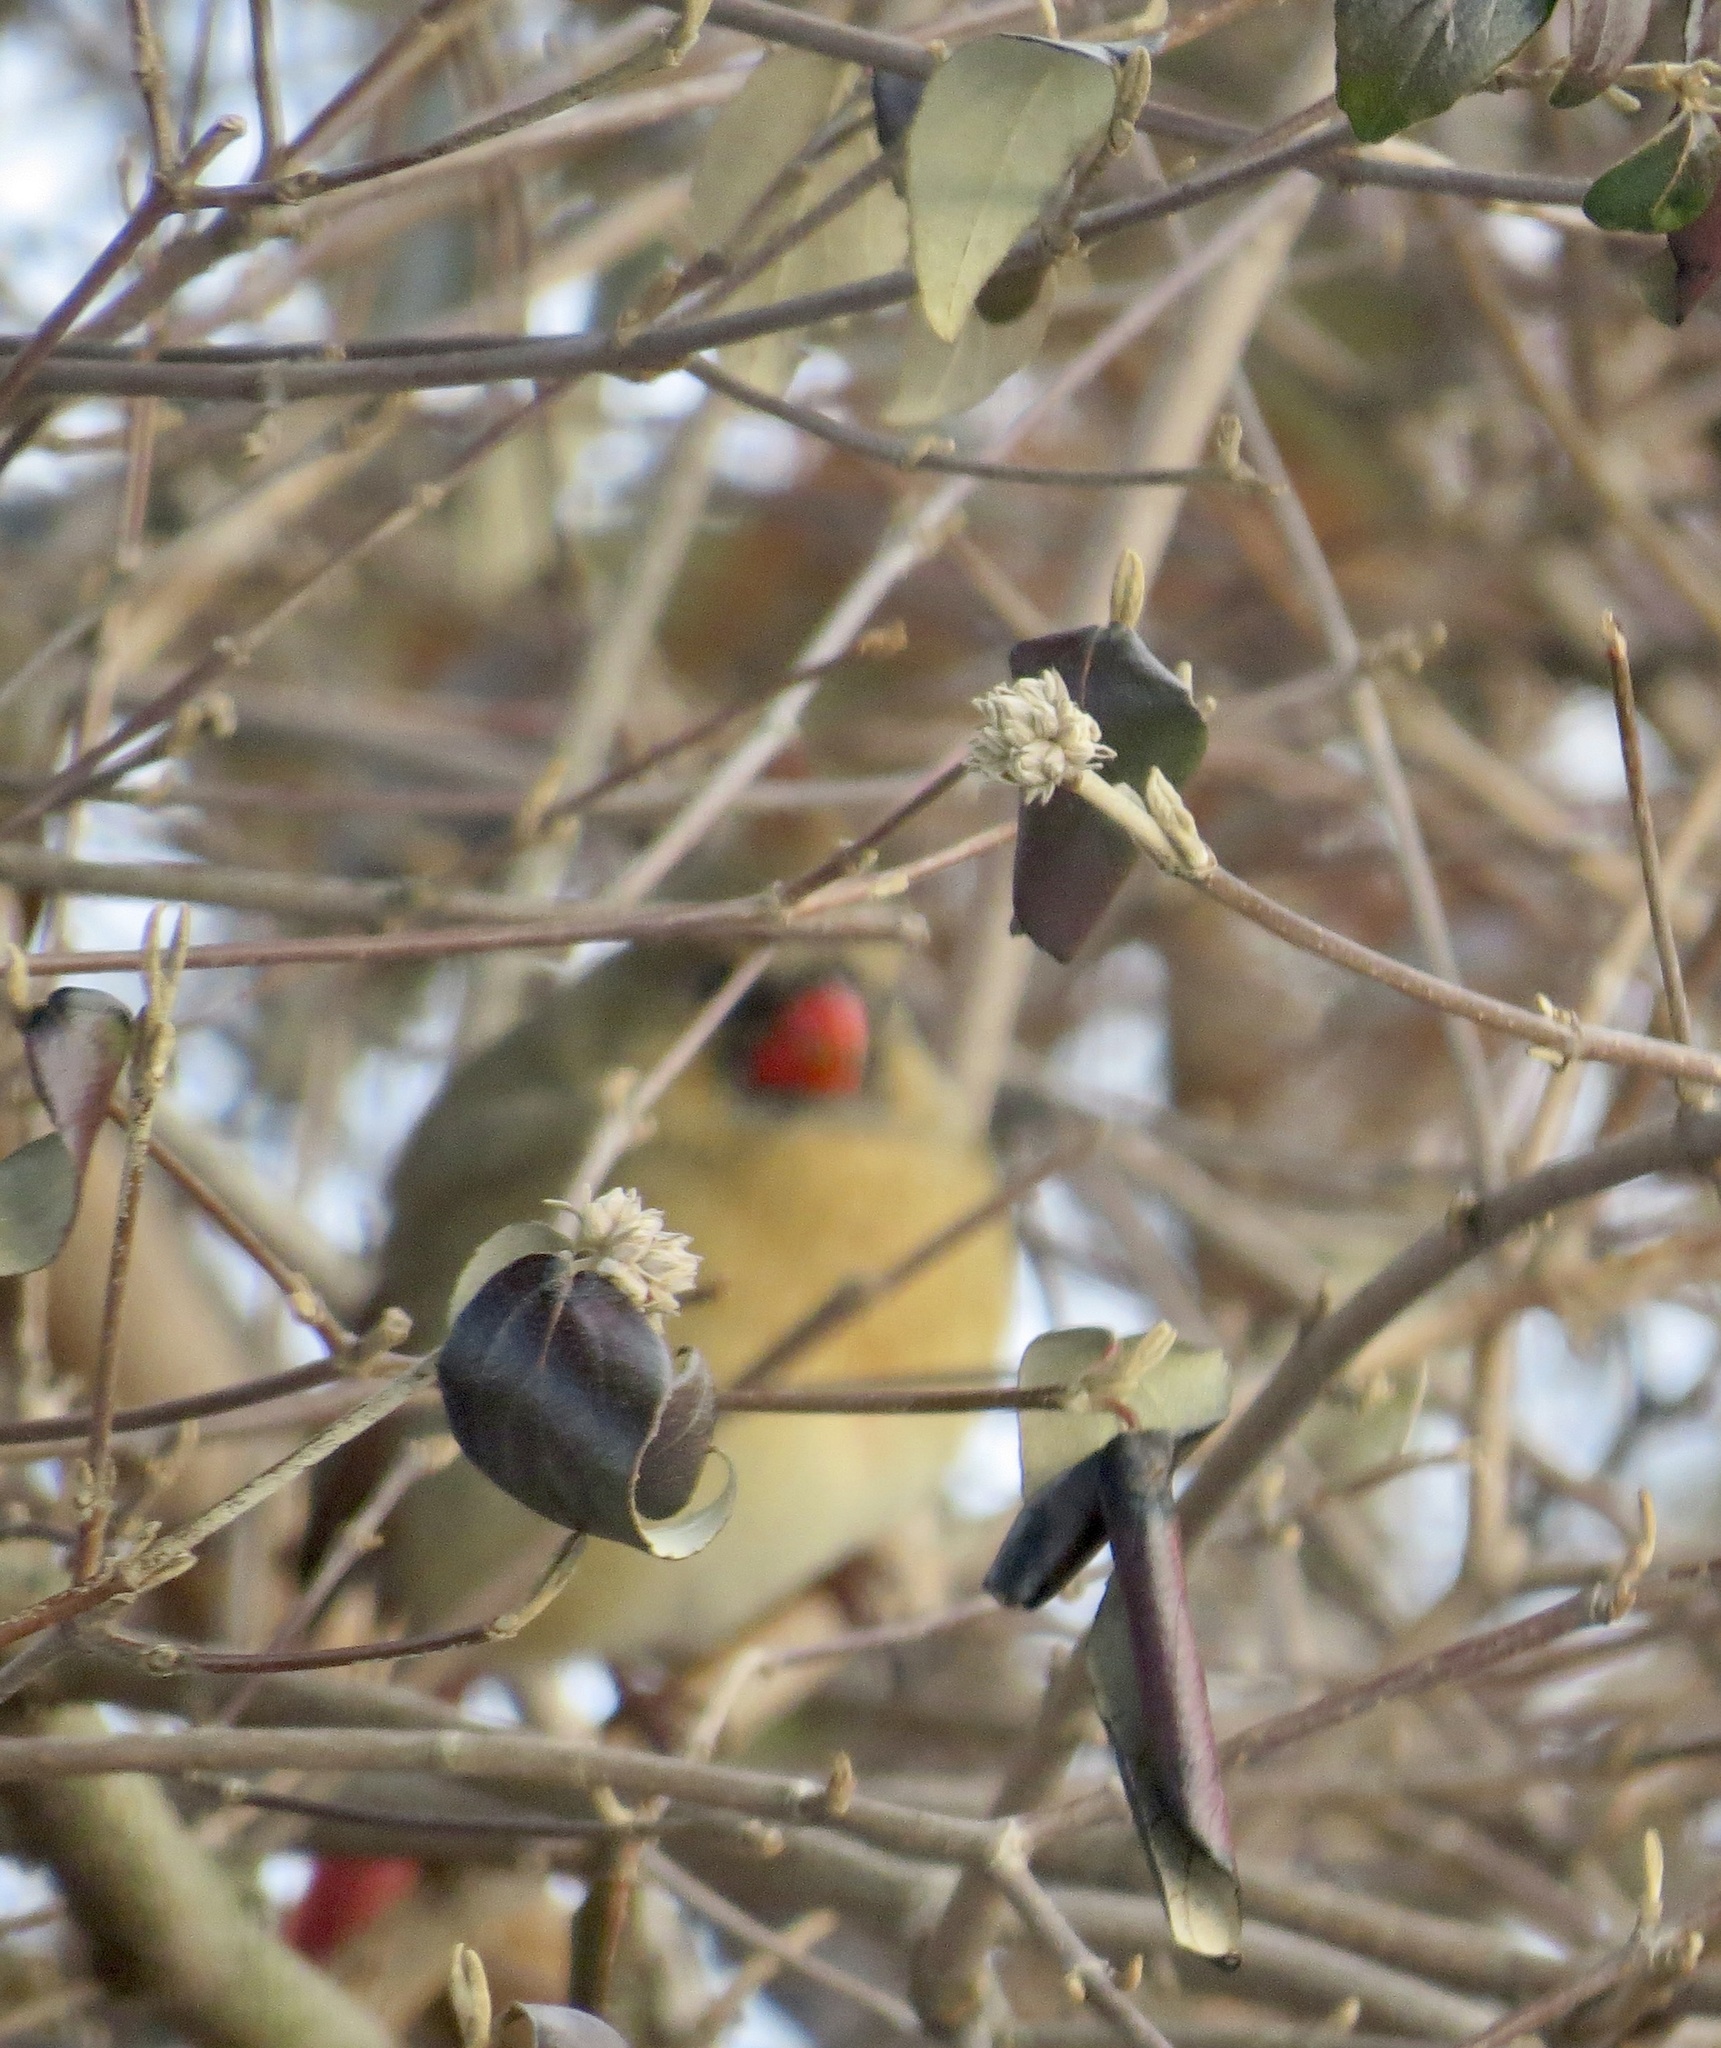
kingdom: Animalia
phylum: Chordata
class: Aves
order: Passeriformes
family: Cardinalidae
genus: Cardinalis
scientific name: Cardinalis cardinalis
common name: Northern cardinal
